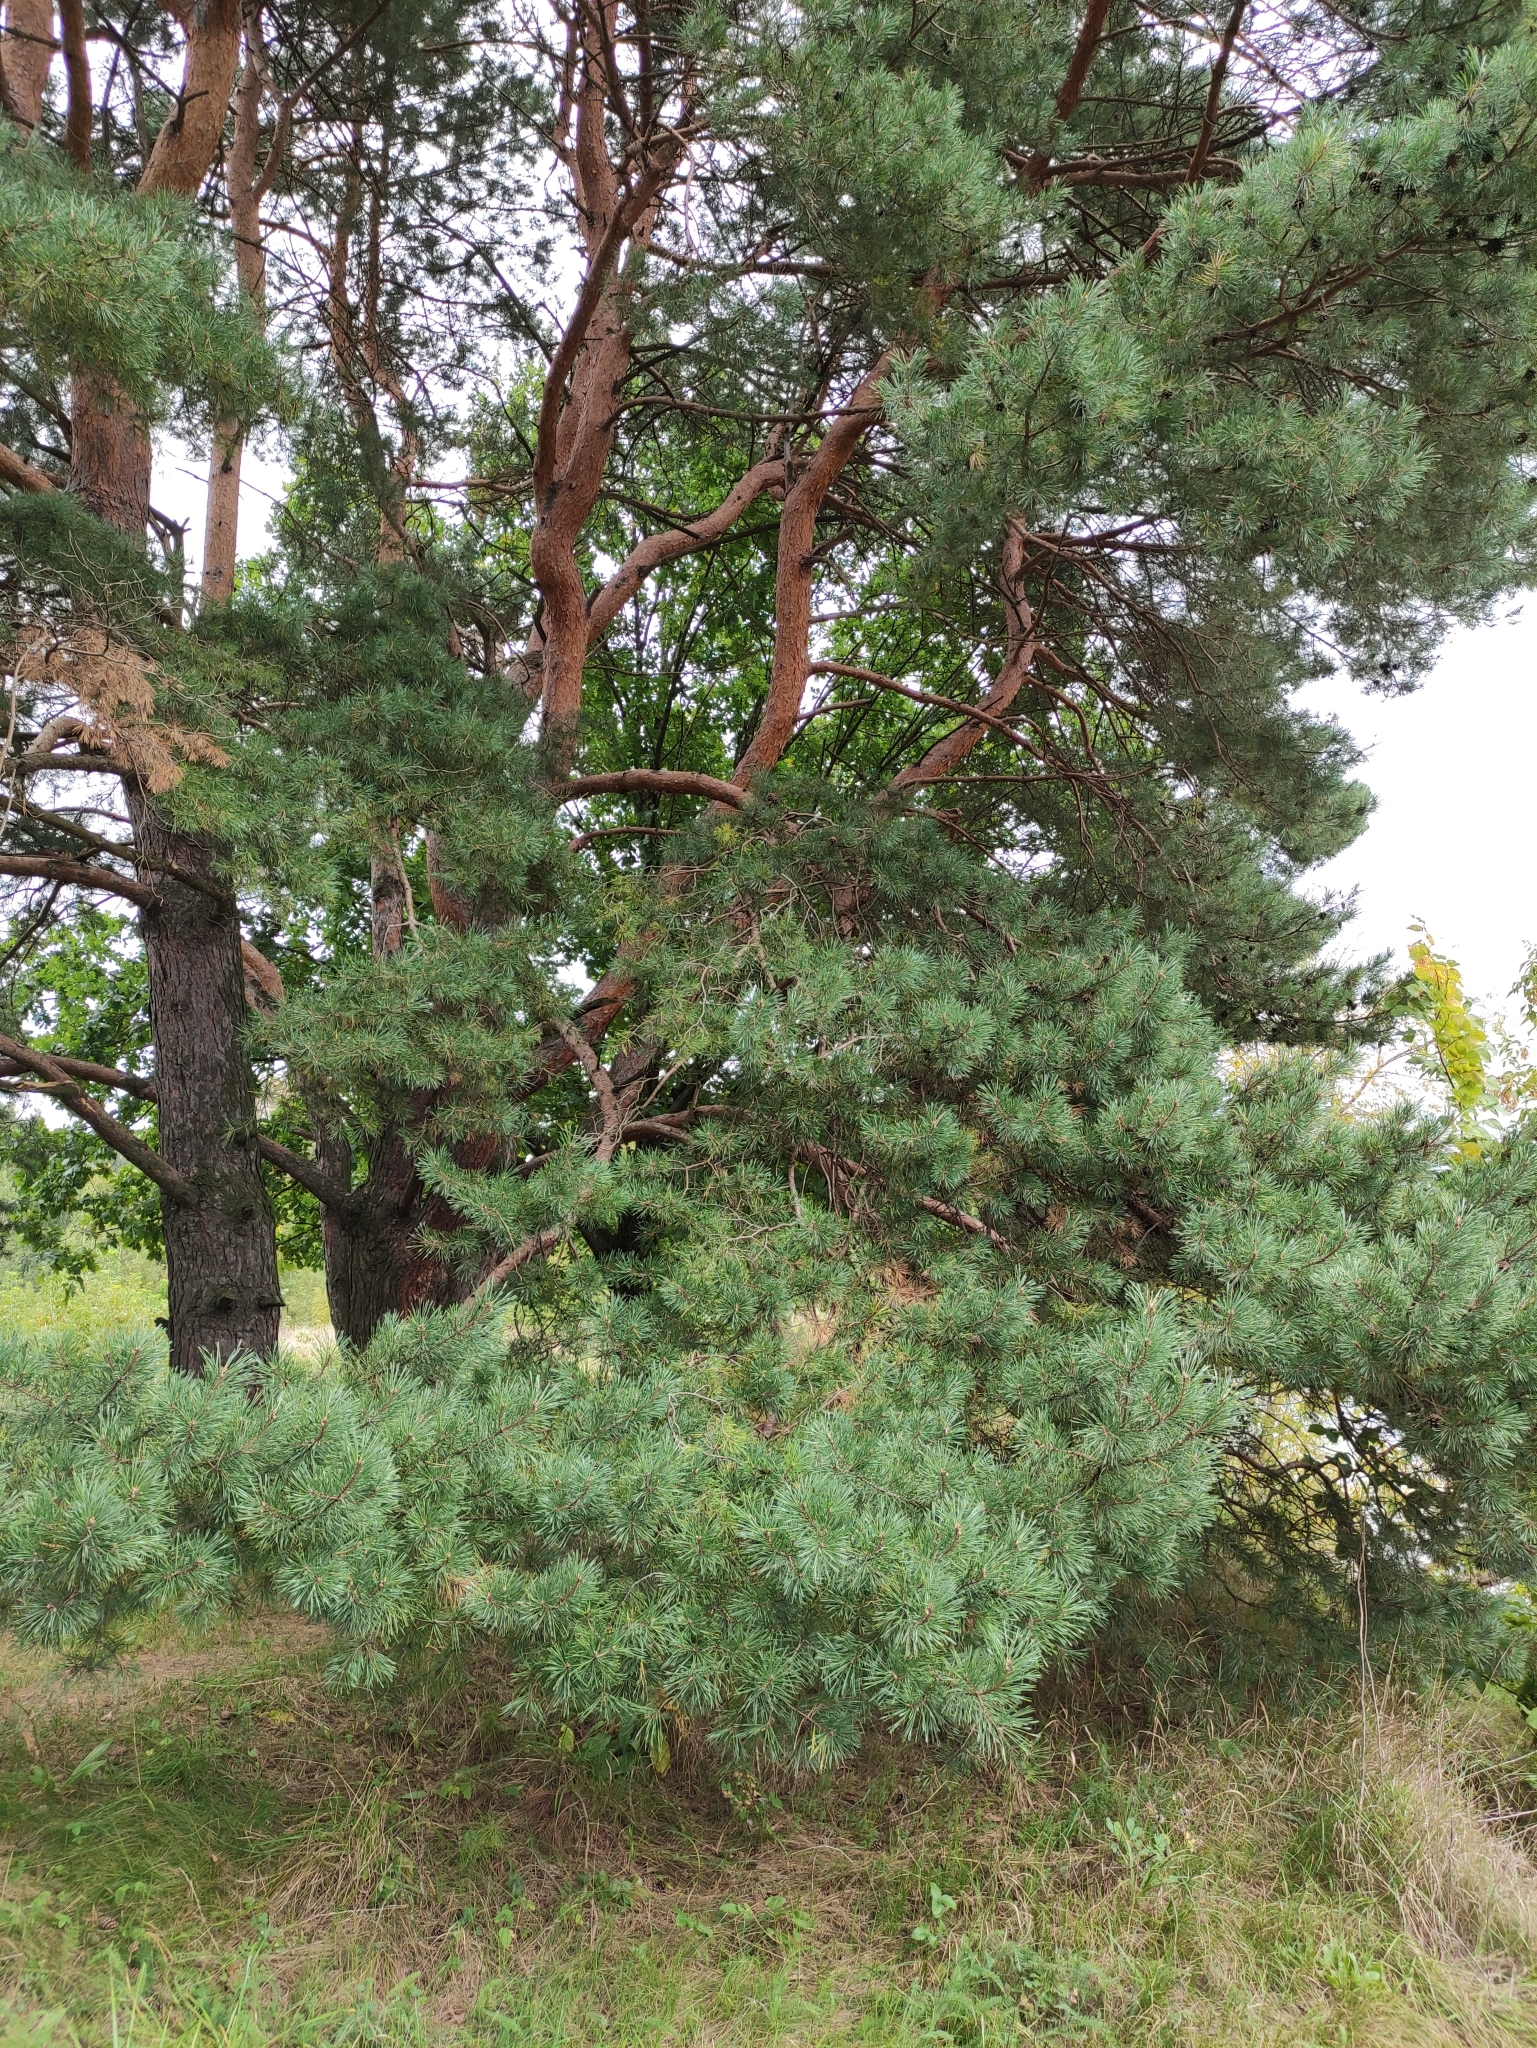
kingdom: Plantae
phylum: Tracheophyta
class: Pinopsida
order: Pinales
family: Pinaceae
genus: Pinus
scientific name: Pinus sylvestris
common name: Scots pine
